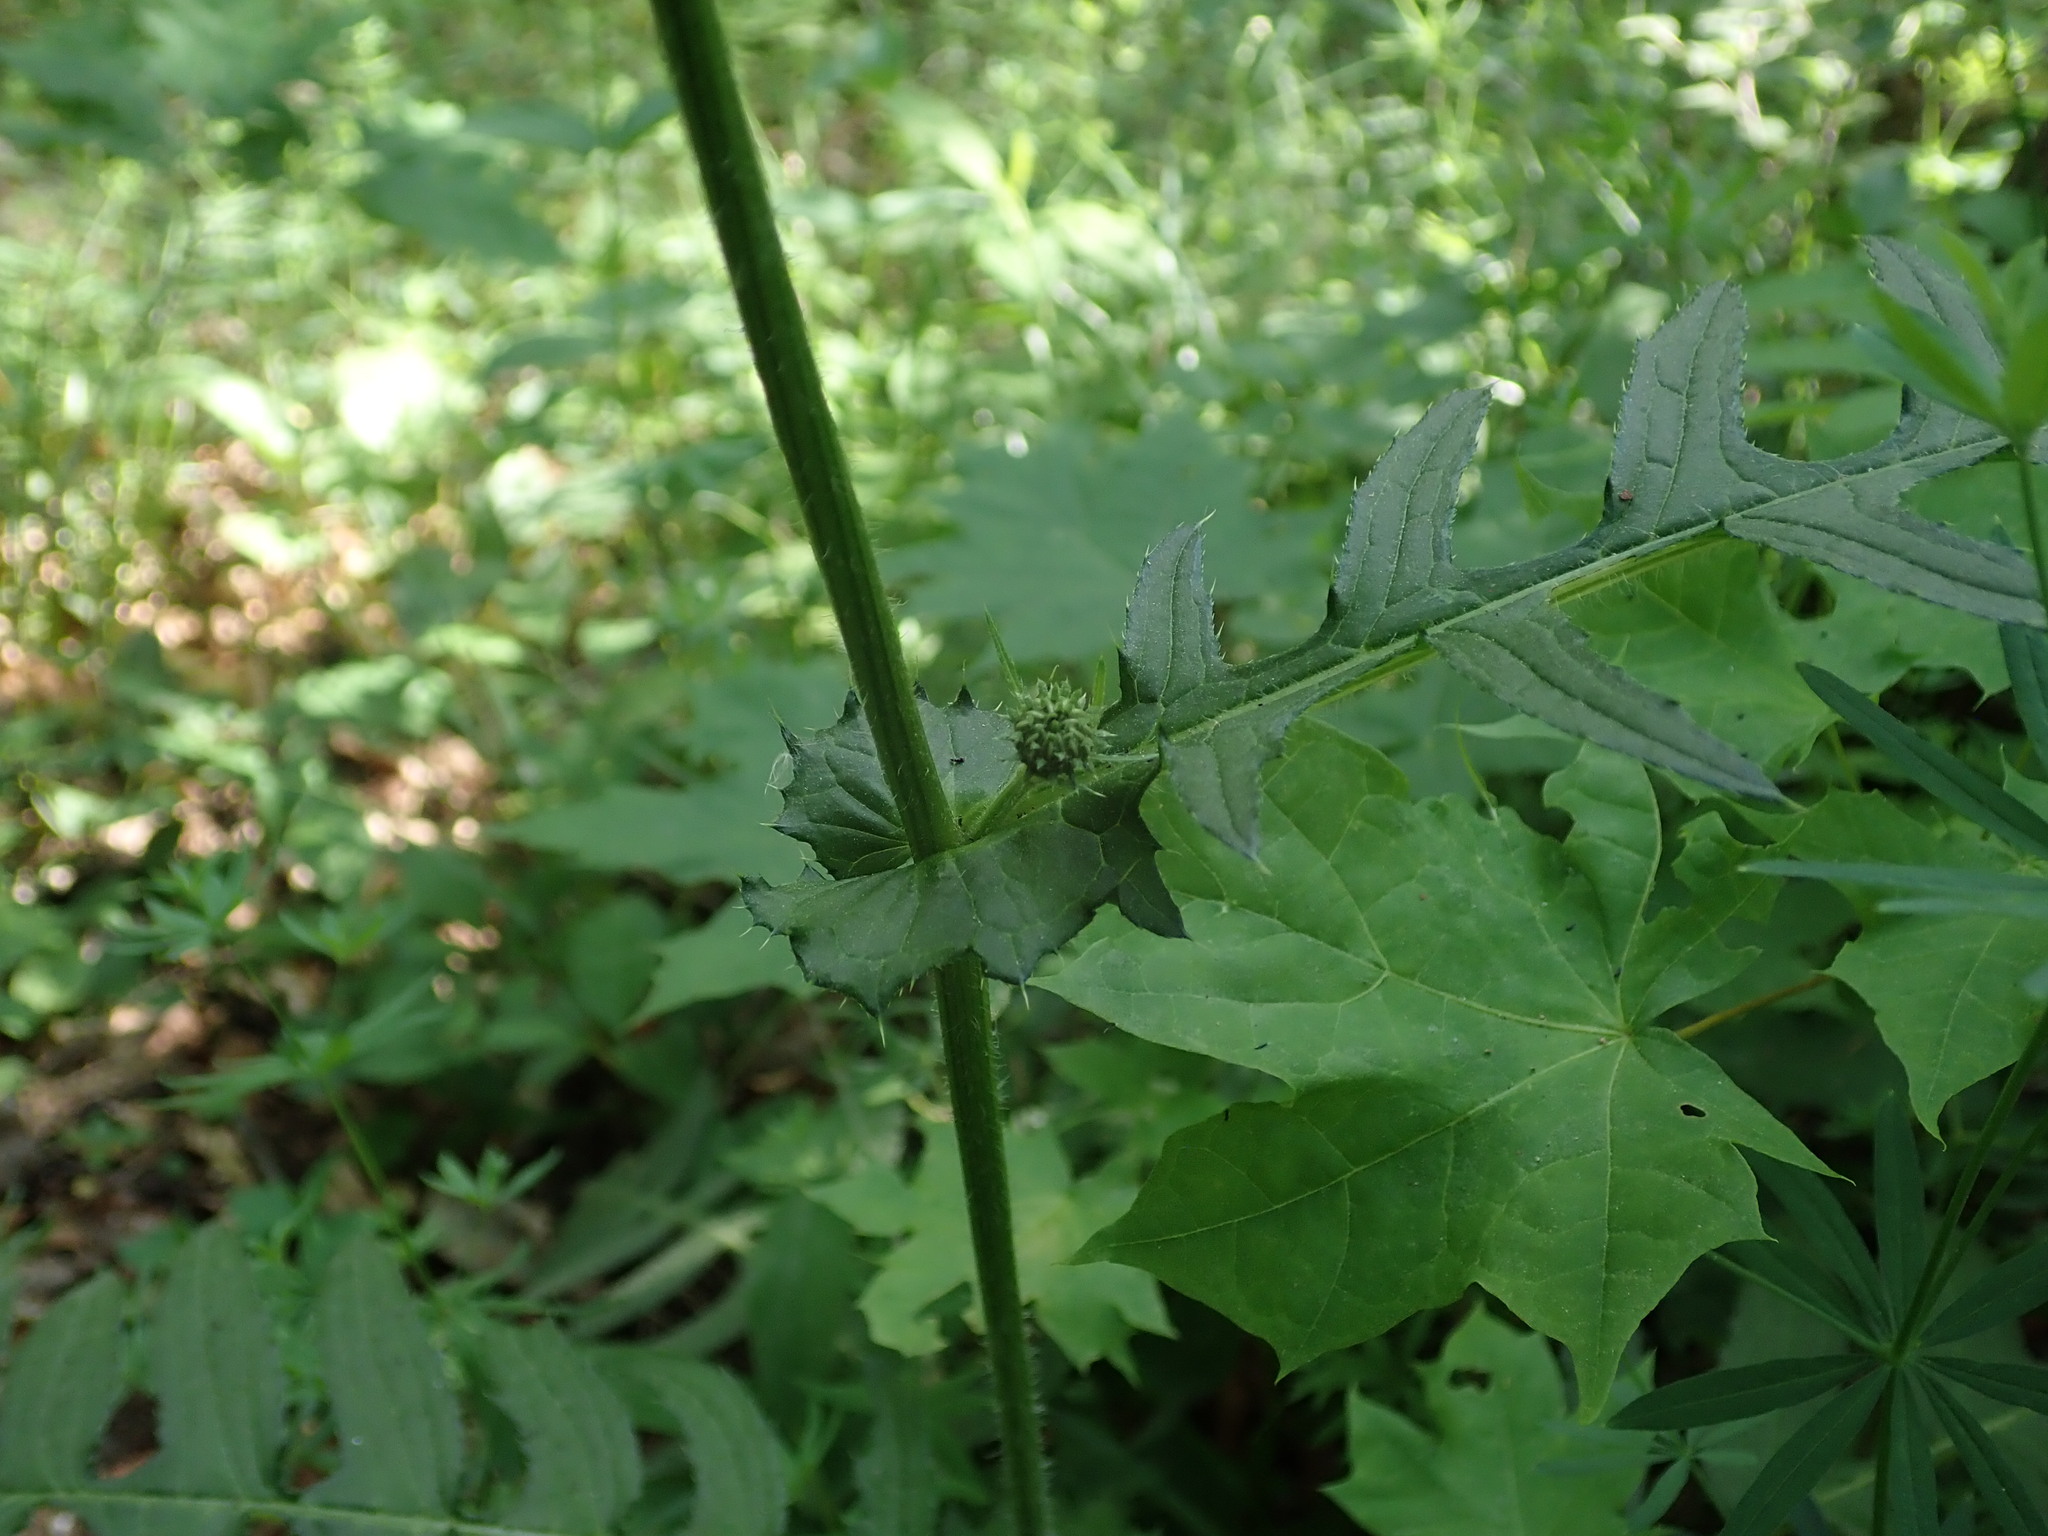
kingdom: Plantae
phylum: Tracheophyta
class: Magnoliopsida
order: Asterales
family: Asteraceae
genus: Cirsium
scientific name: Cirsium erisithales
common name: Yellow thistle
